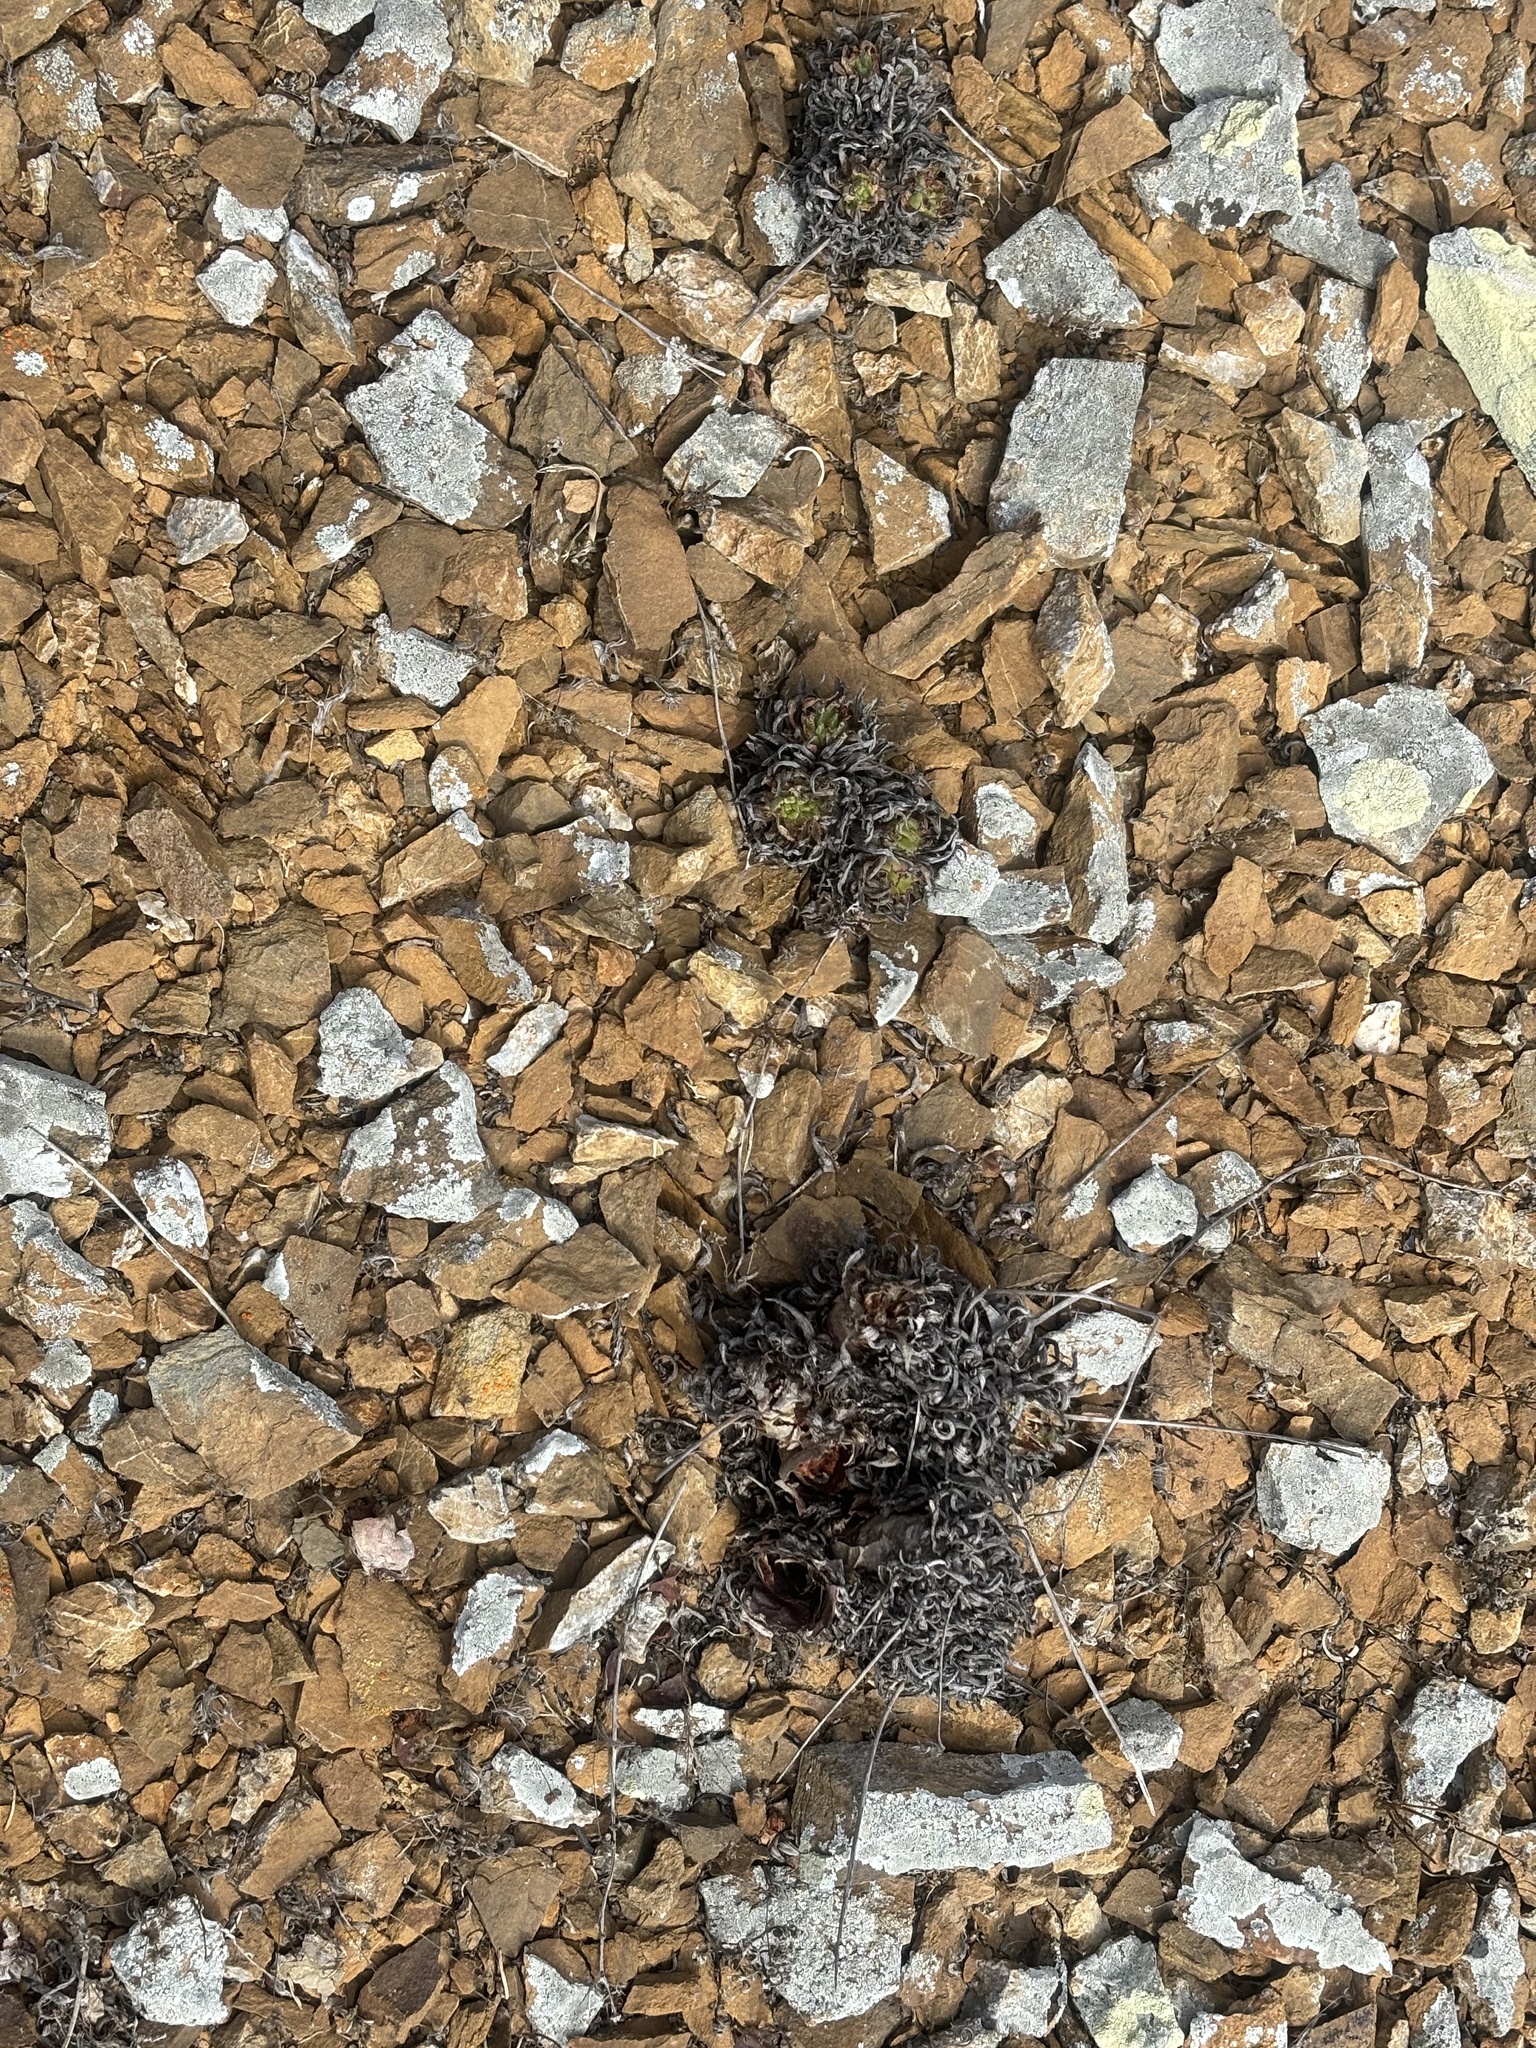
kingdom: Plantae
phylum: Tracheophyta
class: Magnoliopsida
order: Saxifragales
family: Crassulaceae
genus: Dudleya
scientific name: Dudleya linearis
